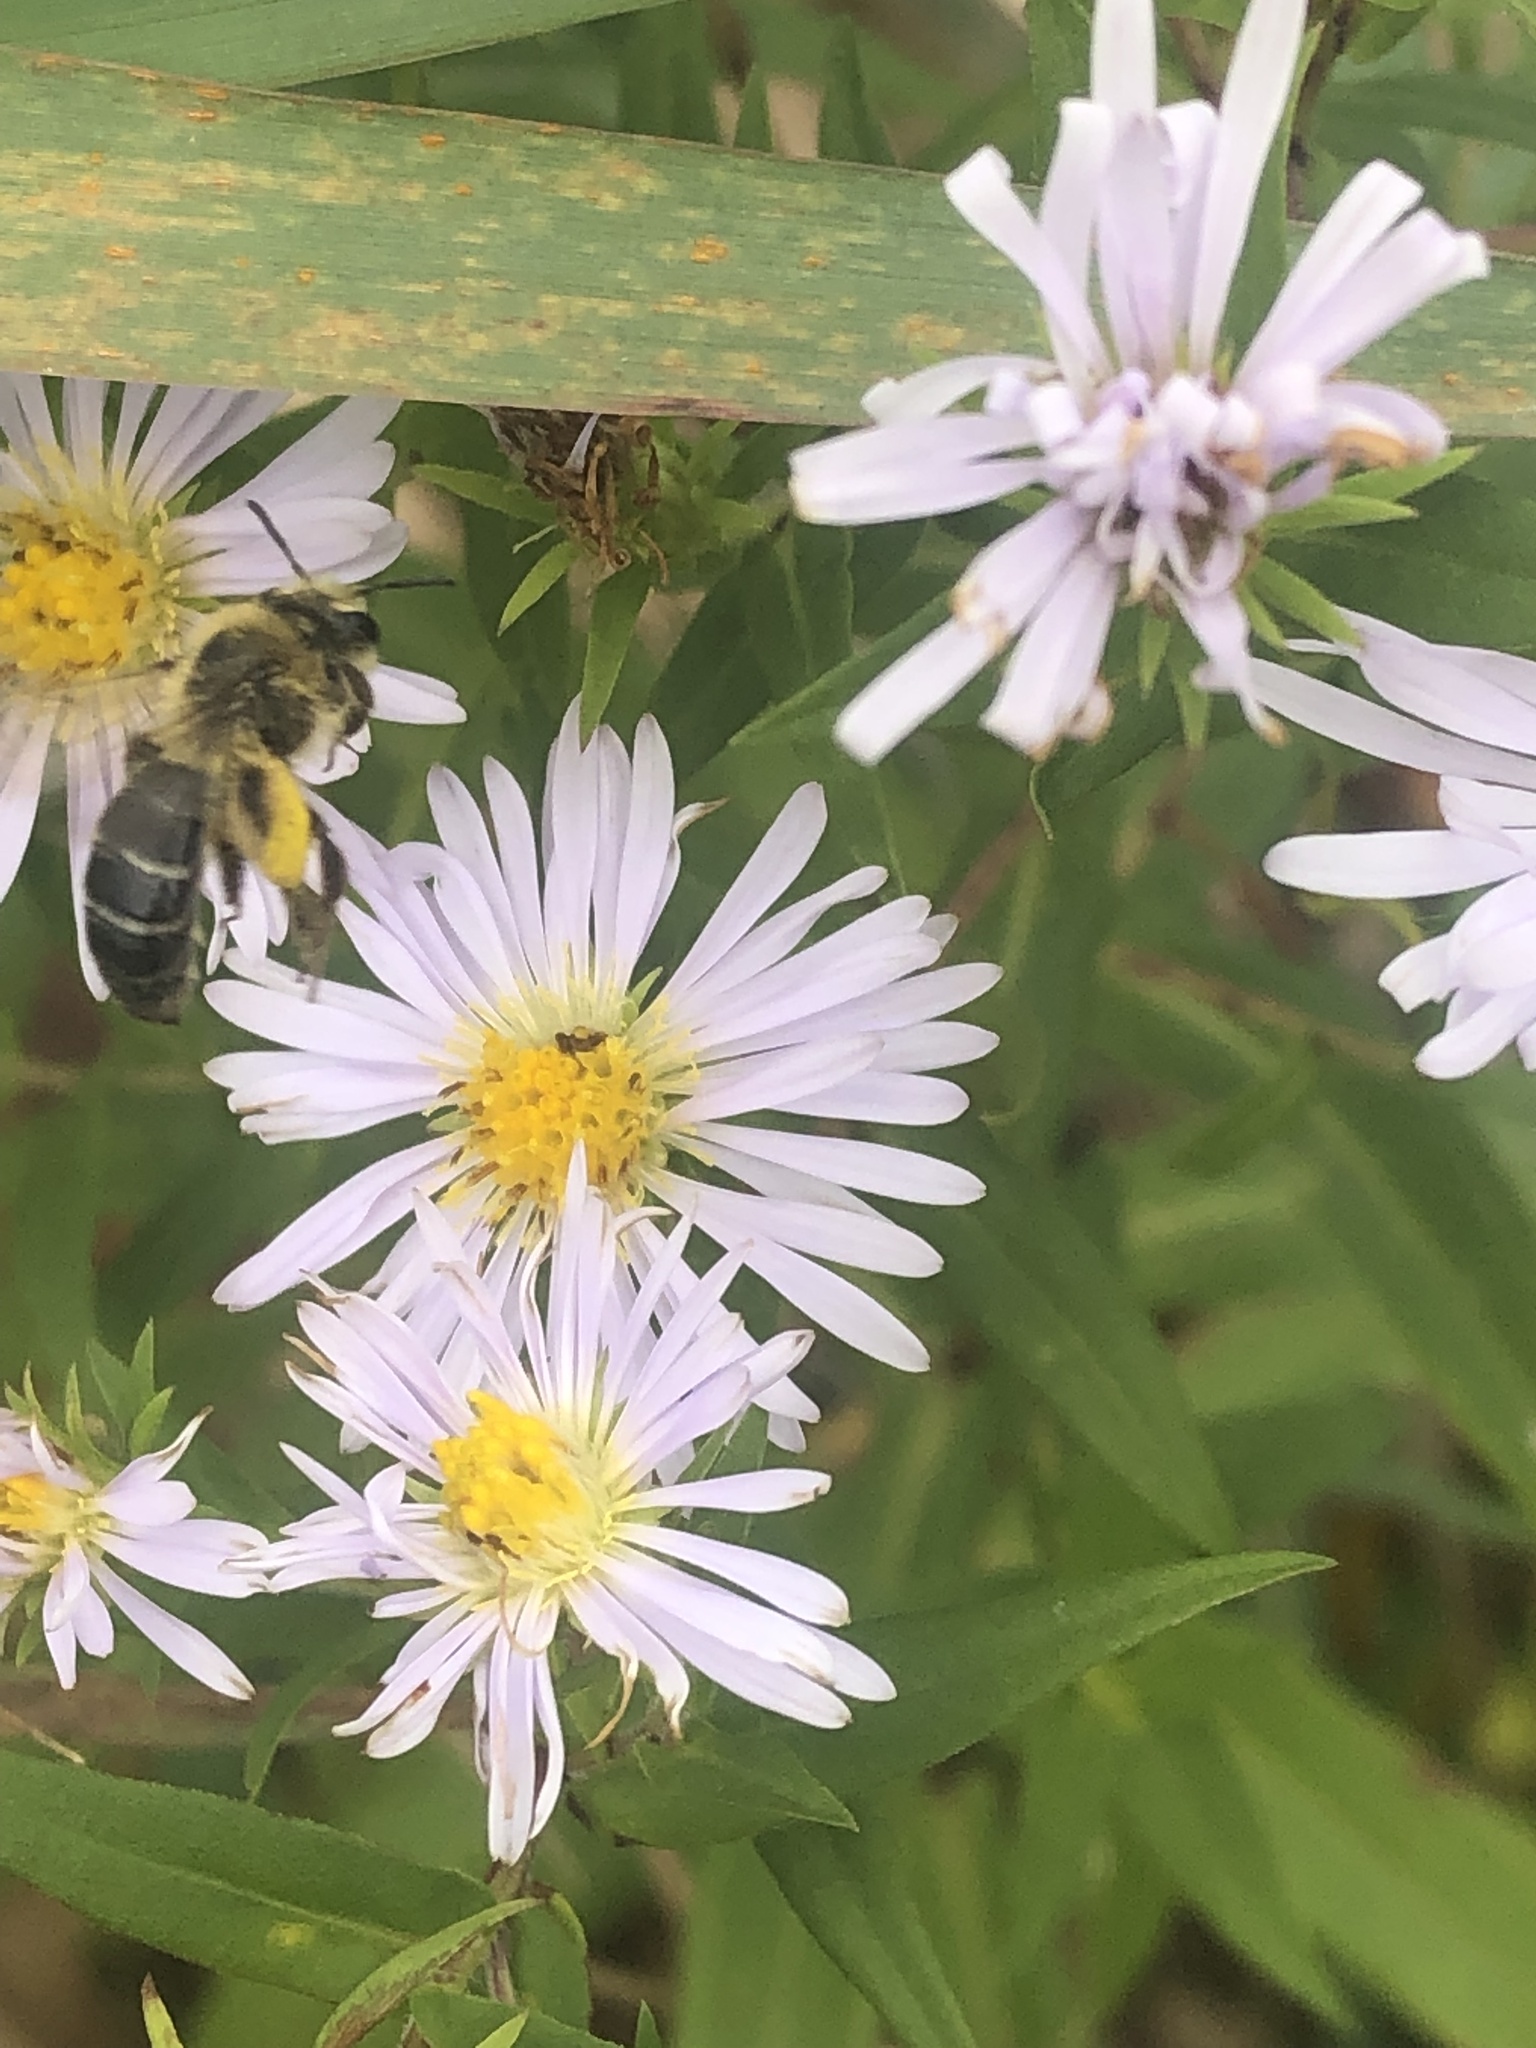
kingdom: Animalia
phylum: Arthropoda
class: Insecta
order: Hymenoptera
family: Andrenidae
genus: Andrena
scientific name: Andrena asteris
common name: Aster mining bee
